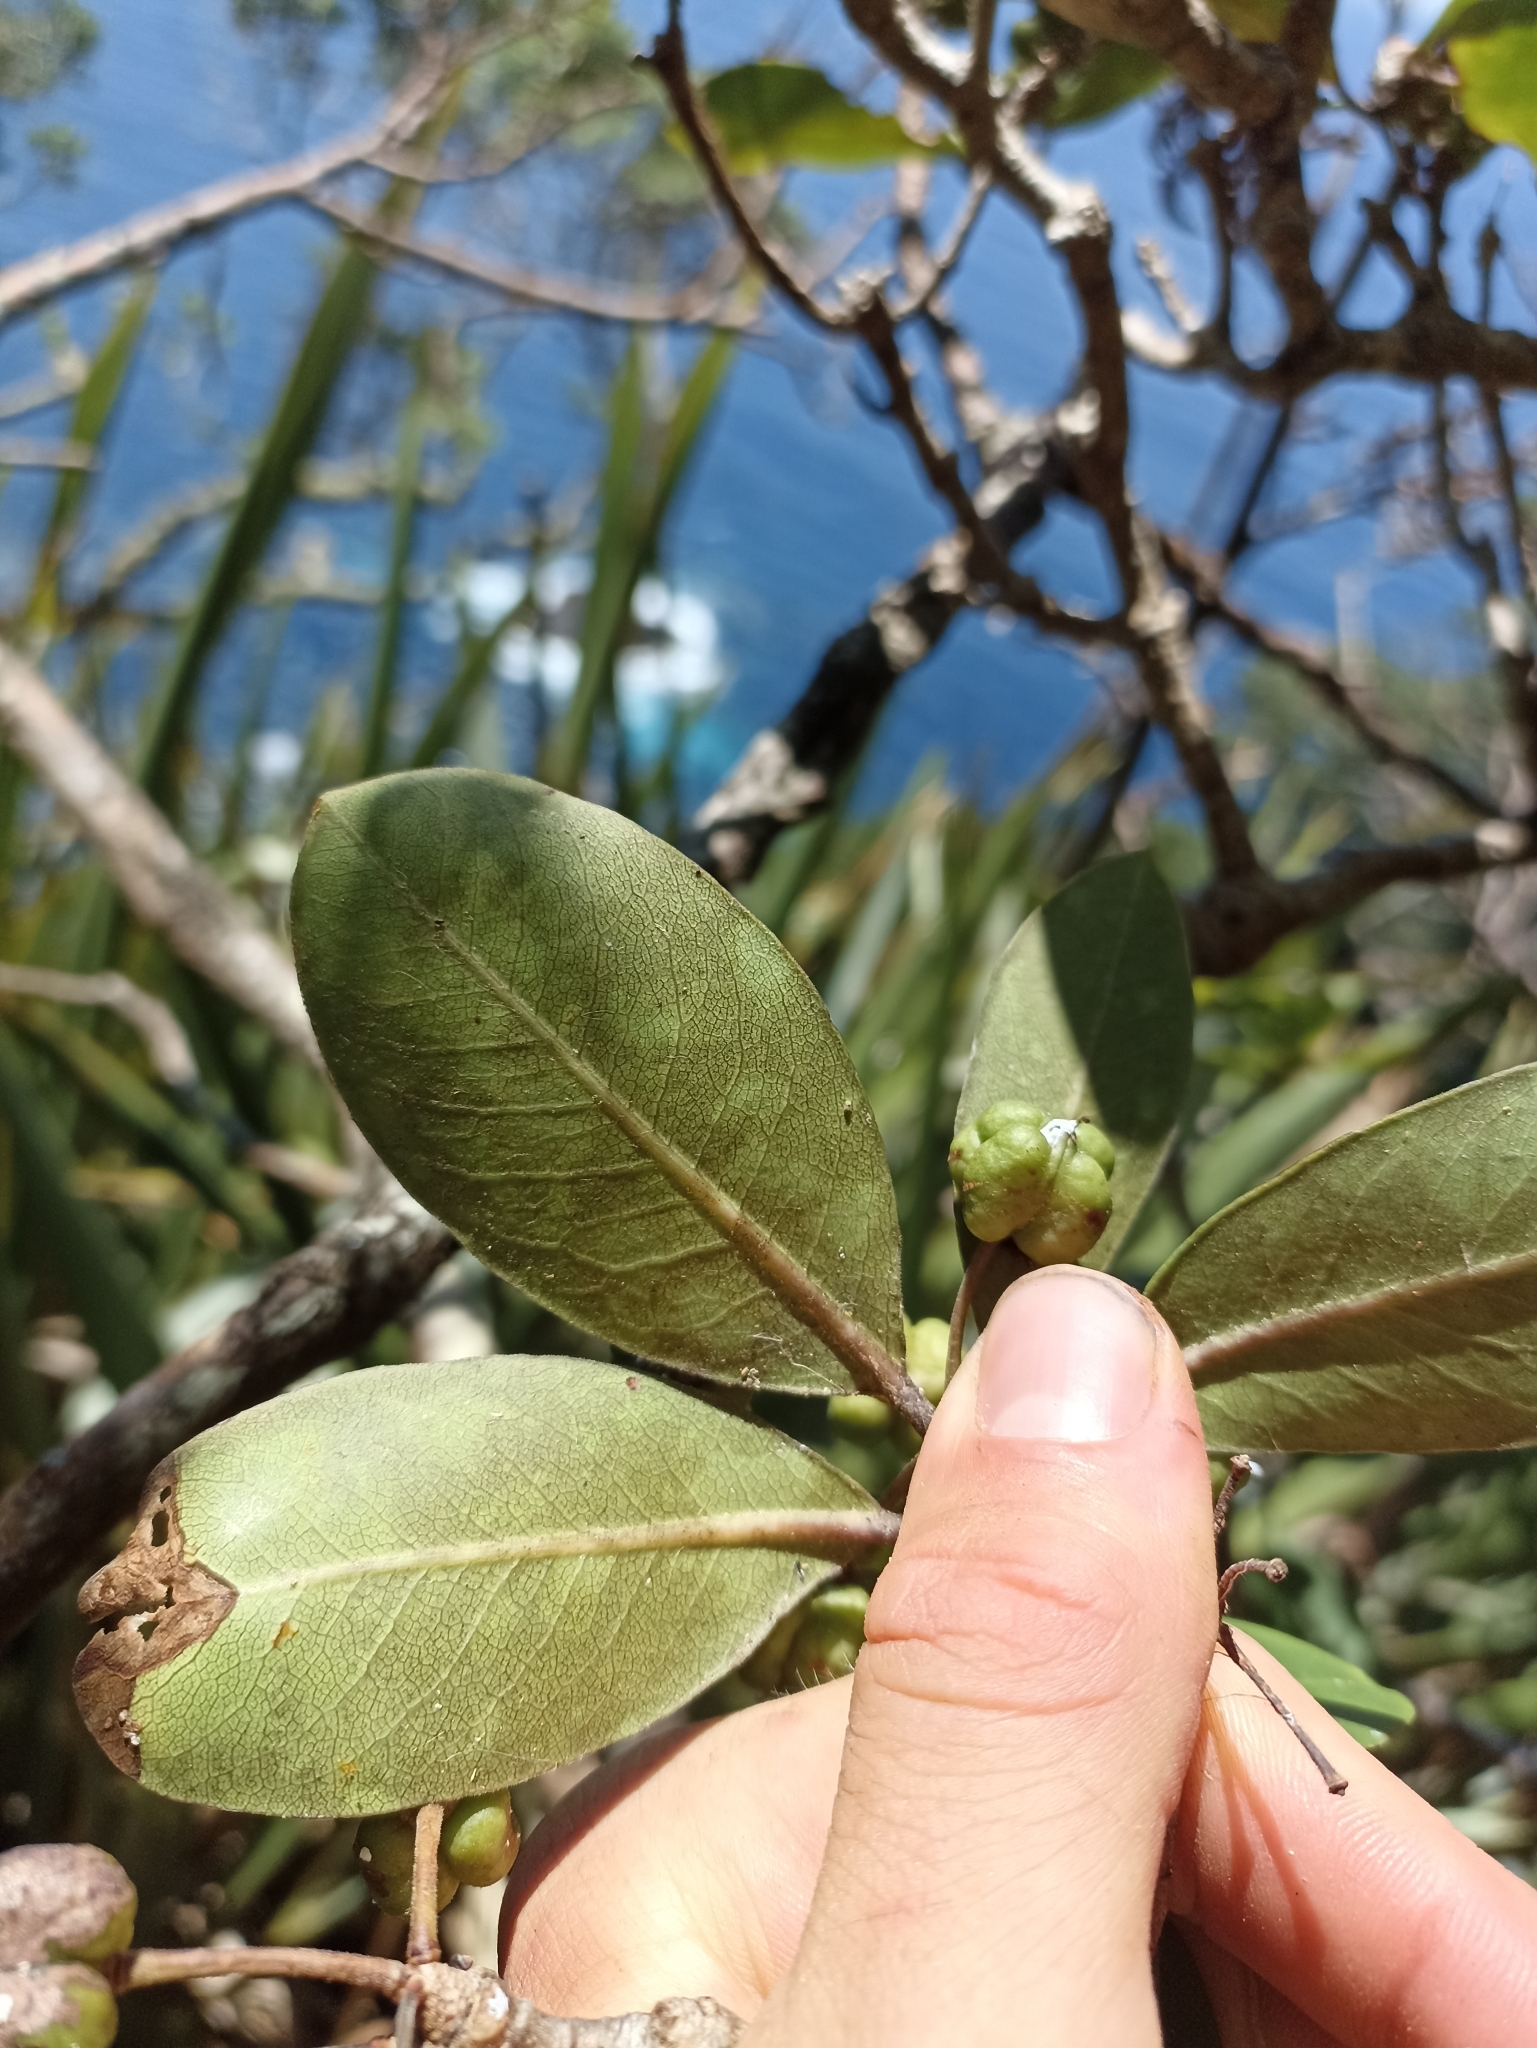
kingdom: Plantae
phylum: Tracheophyta
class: Magnoliopsida
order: Apiales
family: Pittosporaceae
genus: Pittosporum
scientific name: Pittosporum umbellatum
